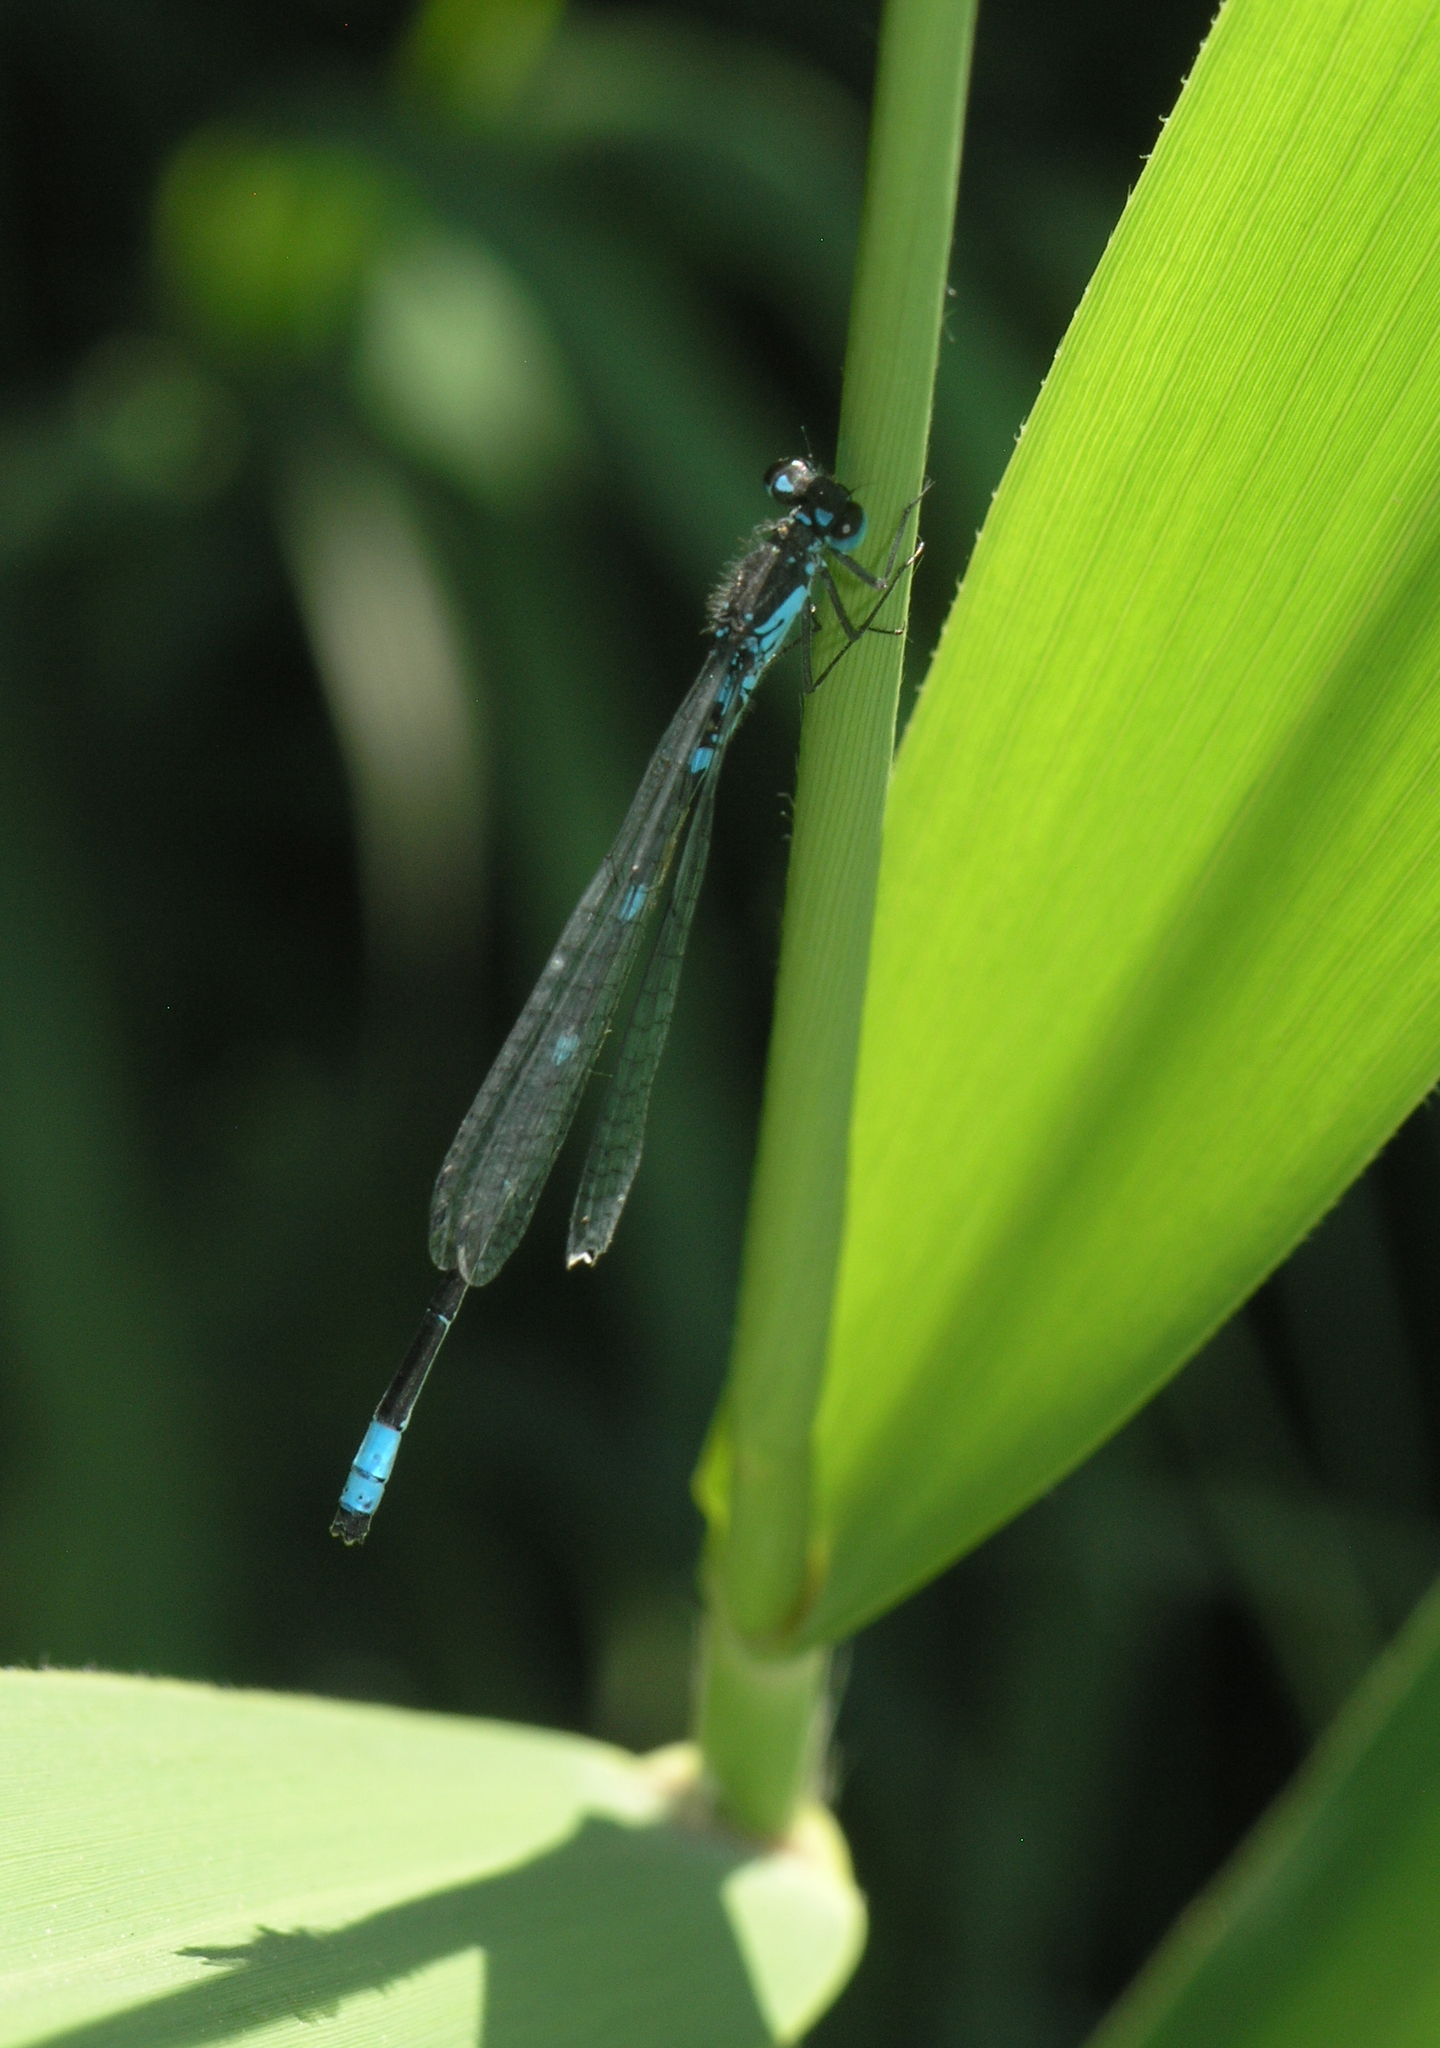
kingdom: Animalia
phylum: Arthropoda
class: Insecta
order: Odonata
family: Coenagrionidae
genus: Coenagrion
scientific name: Coenagrion pulchellum
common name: Variable bluet
